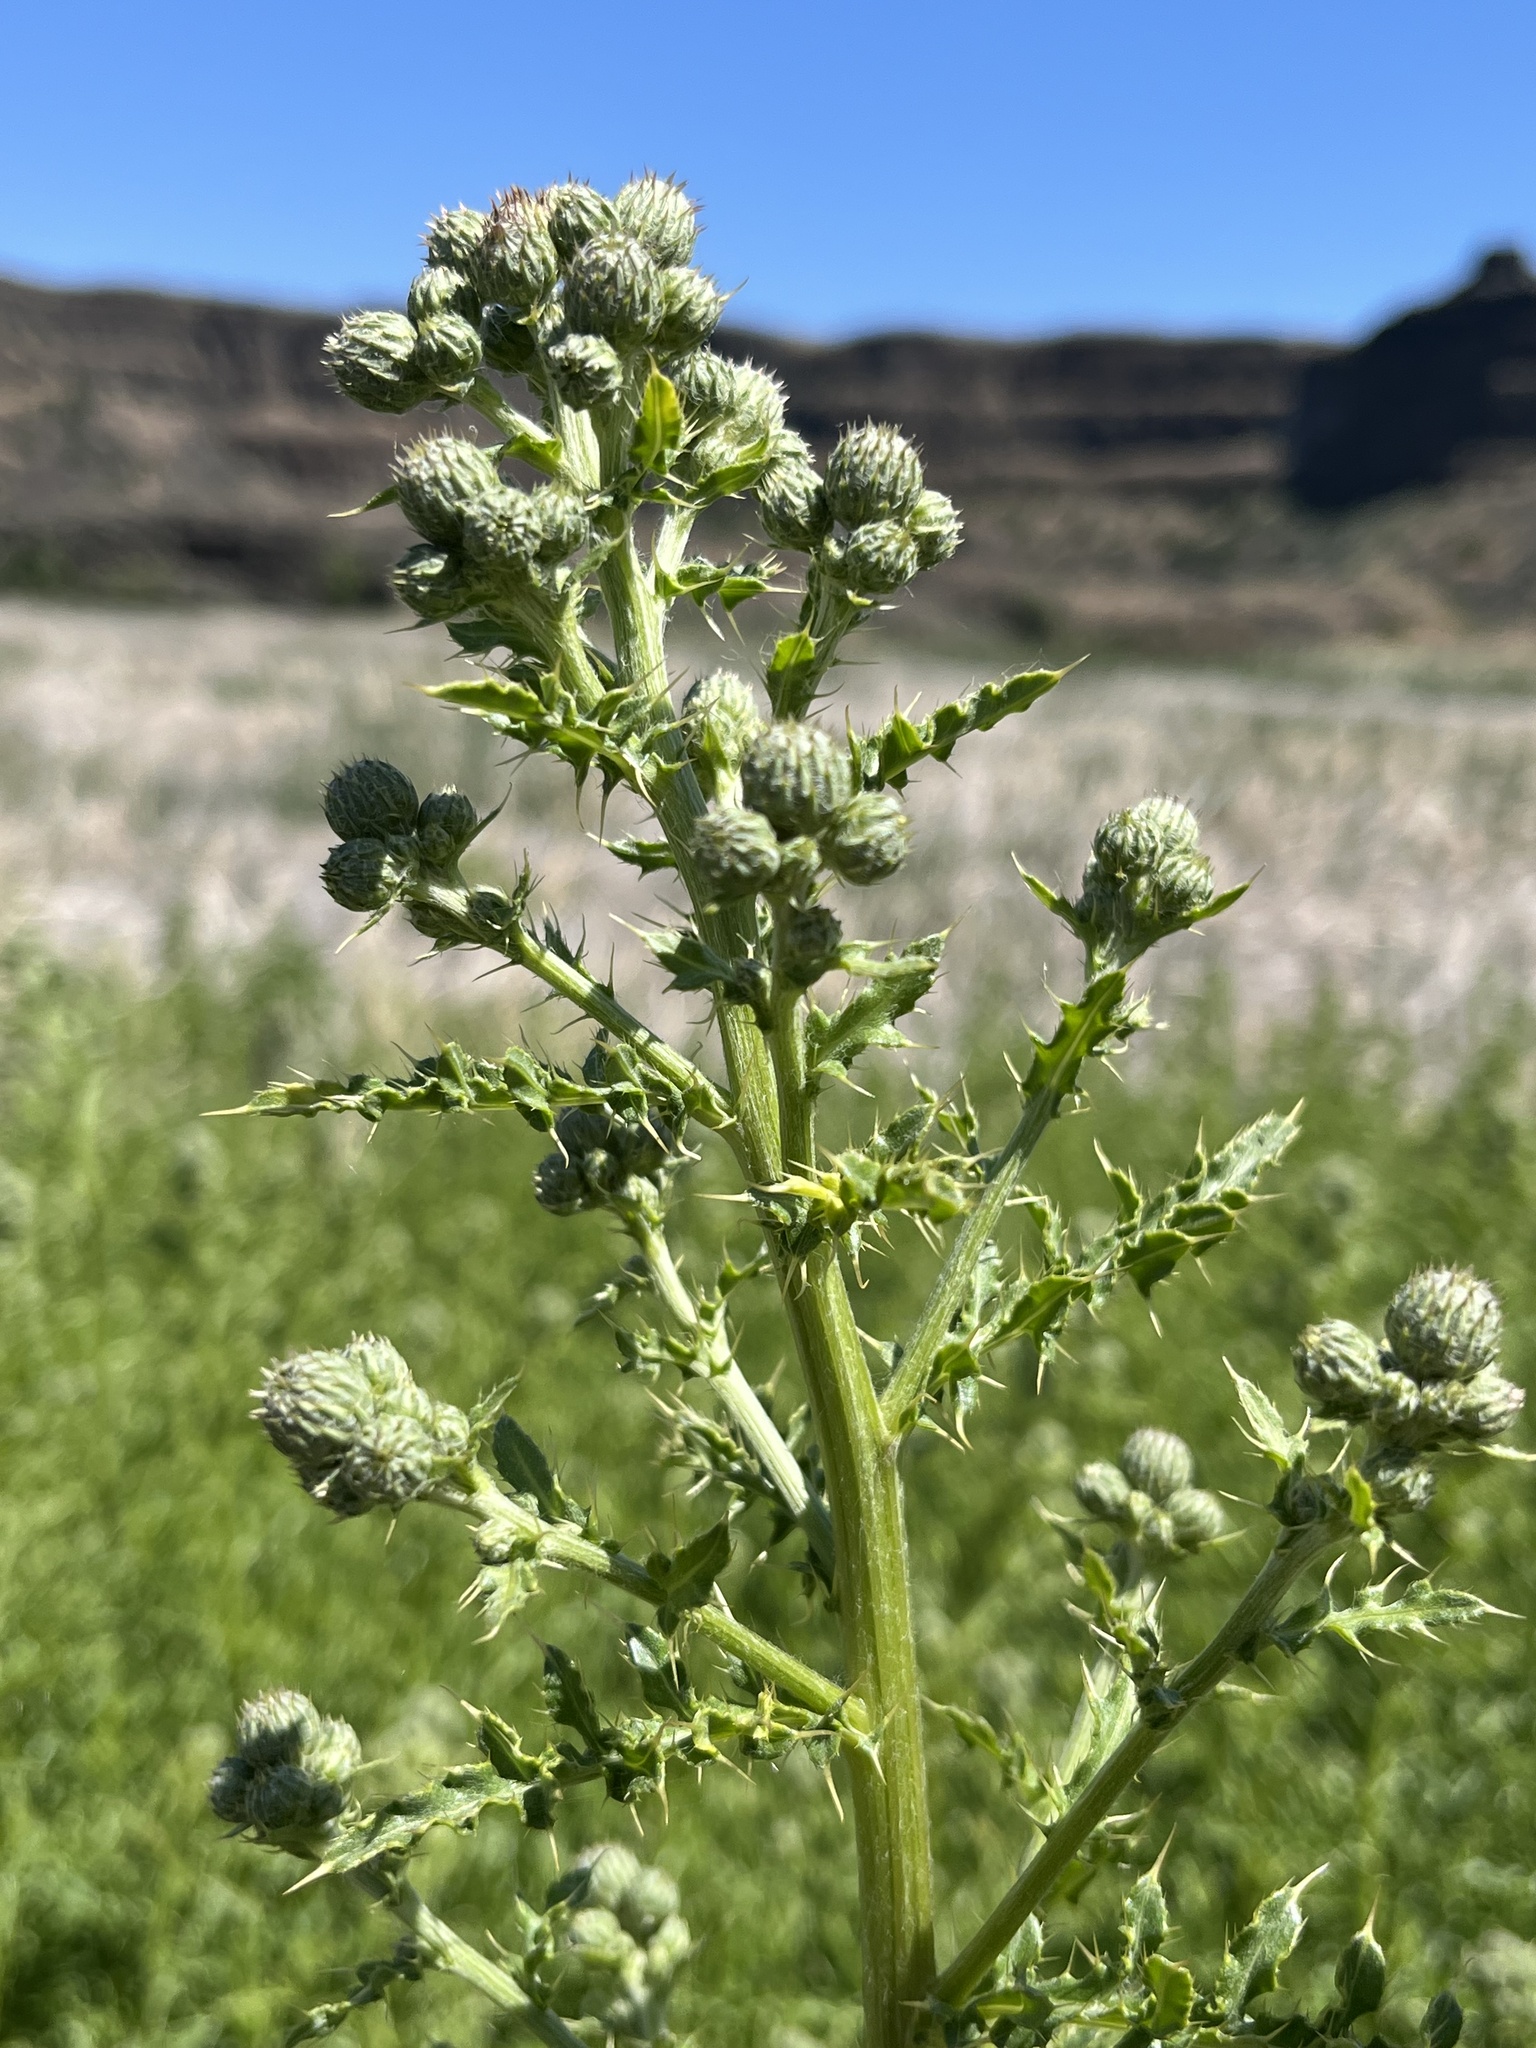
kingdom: Plantae
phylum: Tracheophyta
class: Magnoliopsida
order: Asterales
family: Asteraceae
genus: Cirsium
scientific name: Cirsium arvense
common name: Creeping thistle
